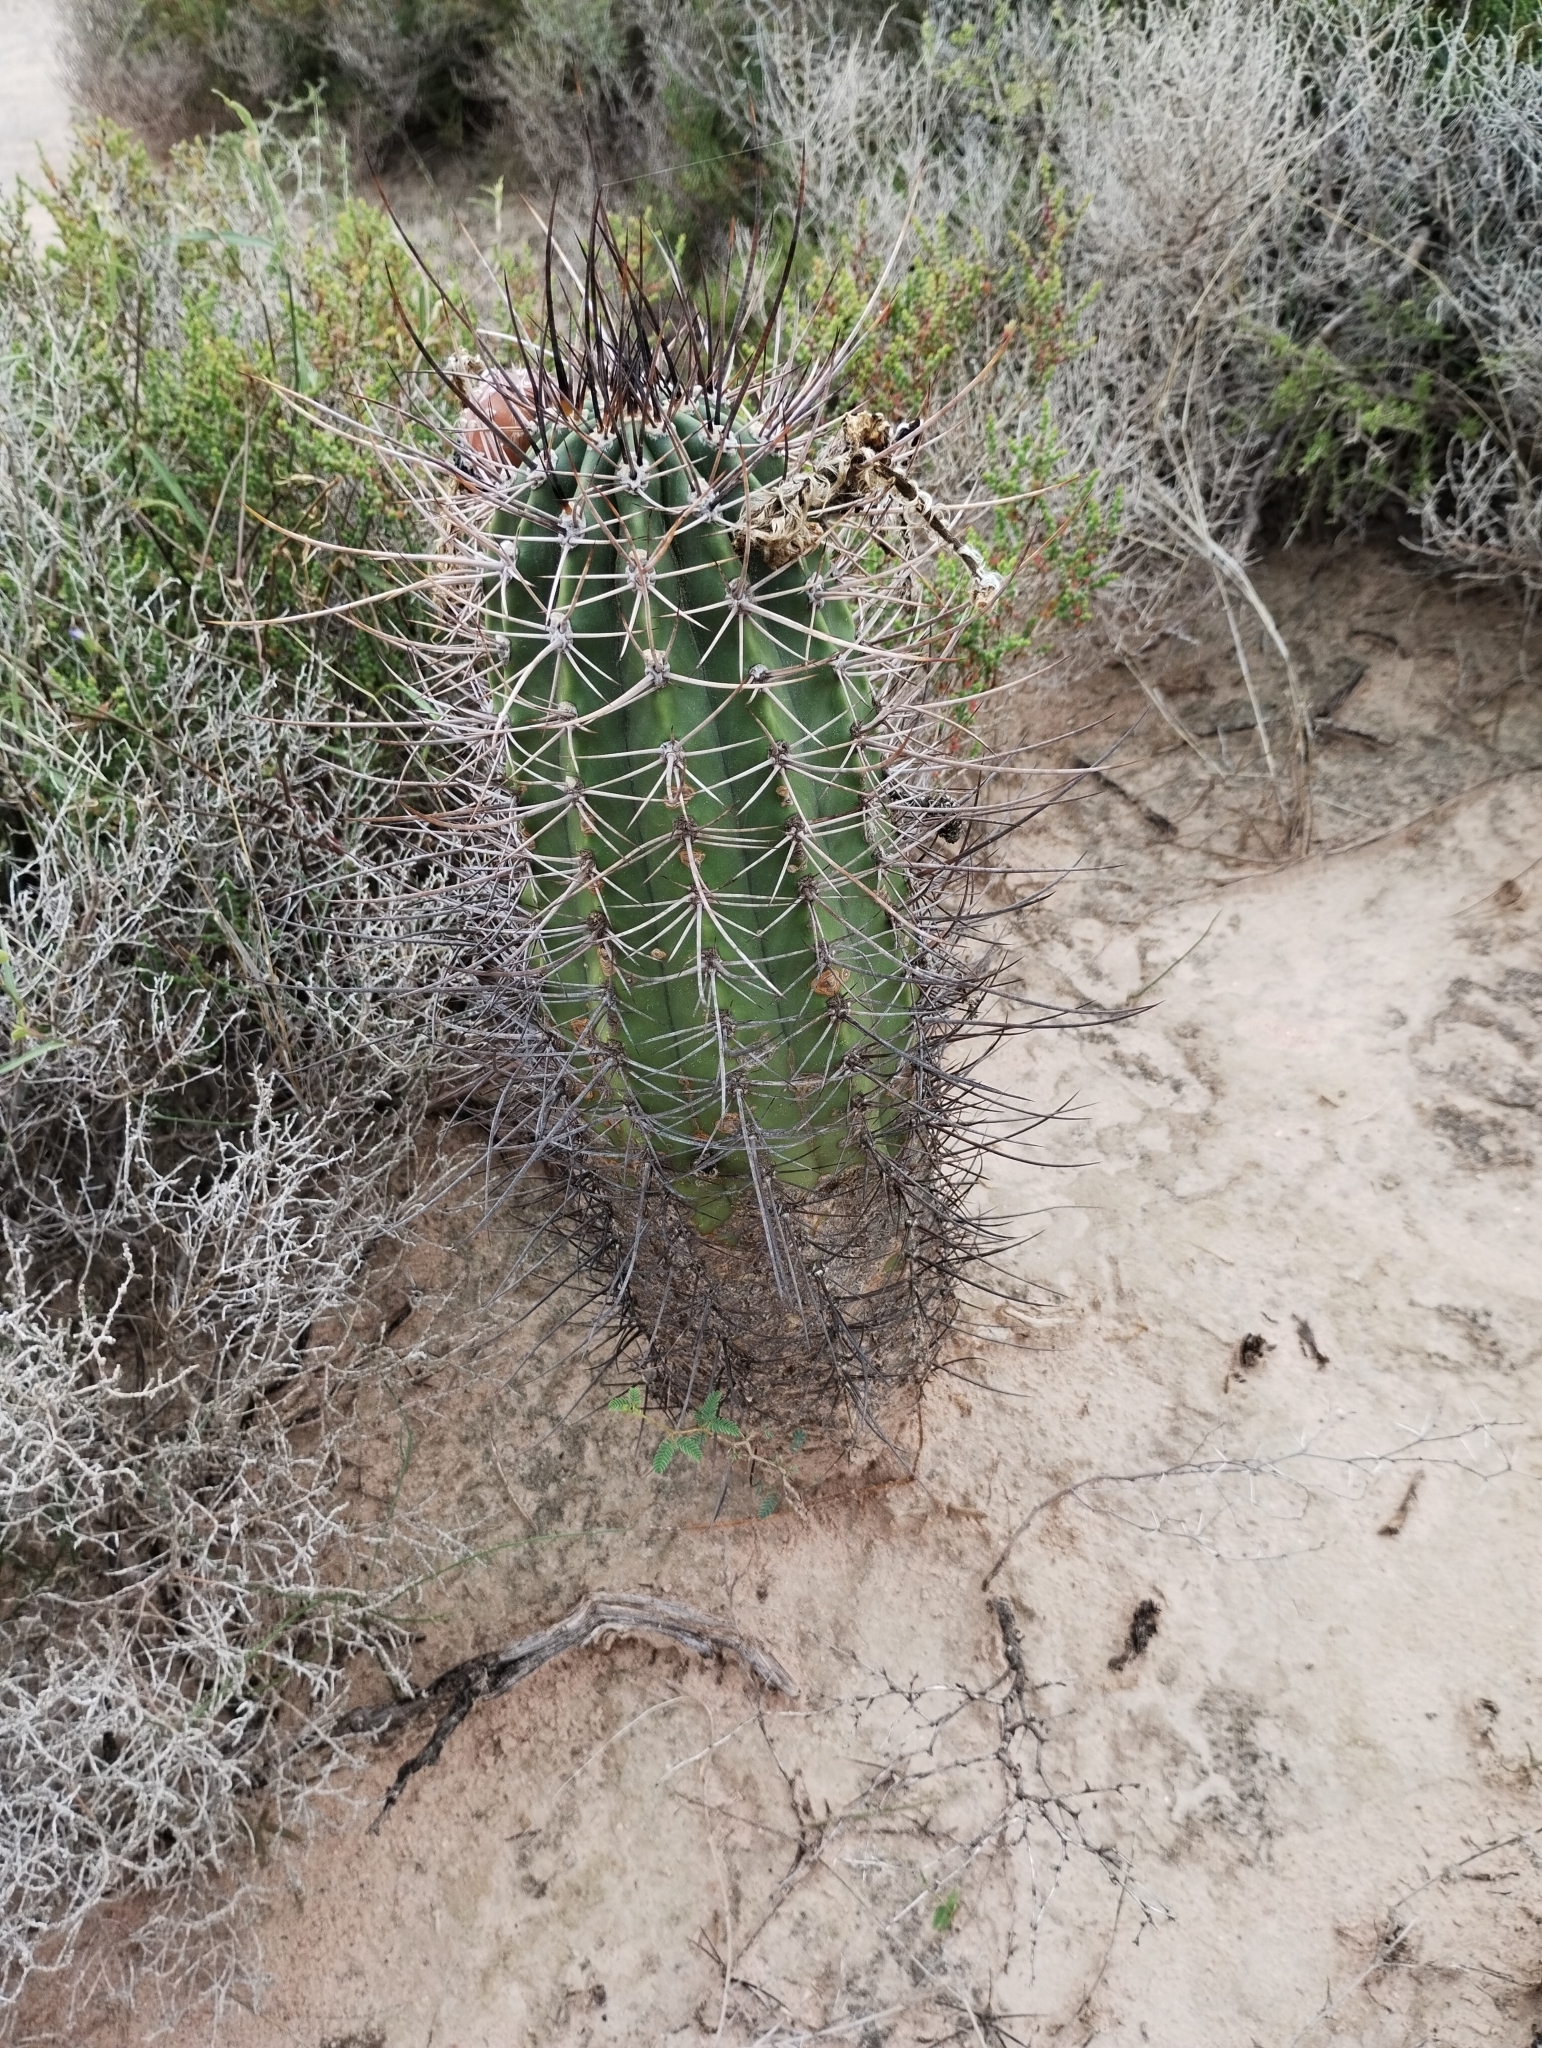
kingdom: Plantae
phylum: Tracheophyta
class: Magnoliopsida
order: Caryophyllales
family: Cactaceae
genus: Acanthocalycium
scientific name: Acanthocalycium leucanthum
